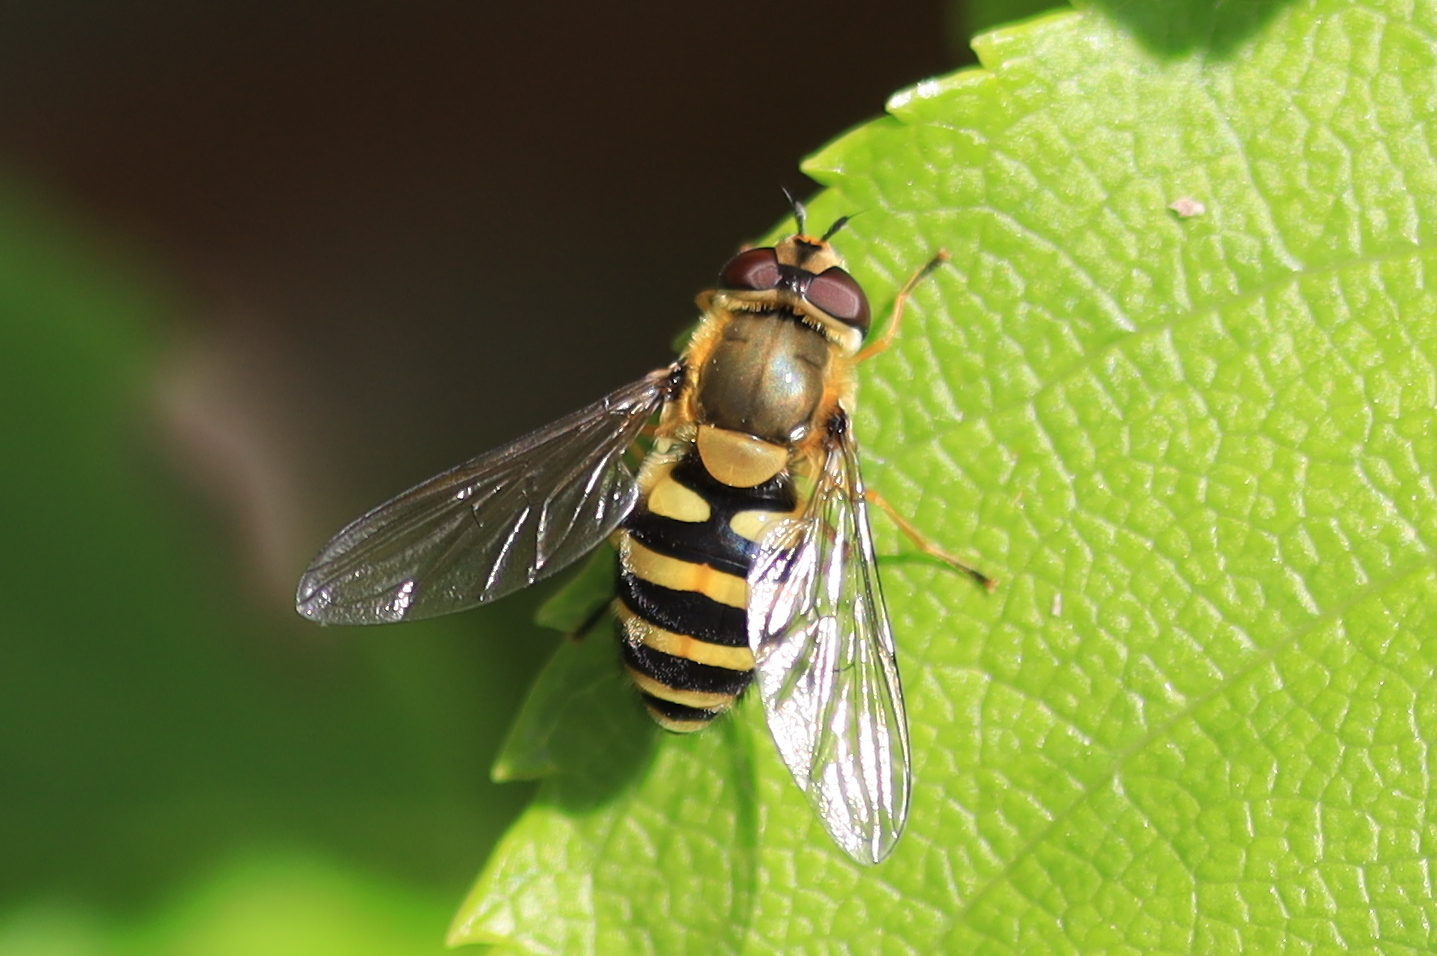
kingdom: Animalia
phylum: Arthropoda
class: Insecta
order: Diptera
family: Syrphidae
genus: Syrphus
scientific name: Syrphus ribesii
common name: Common flower fly
